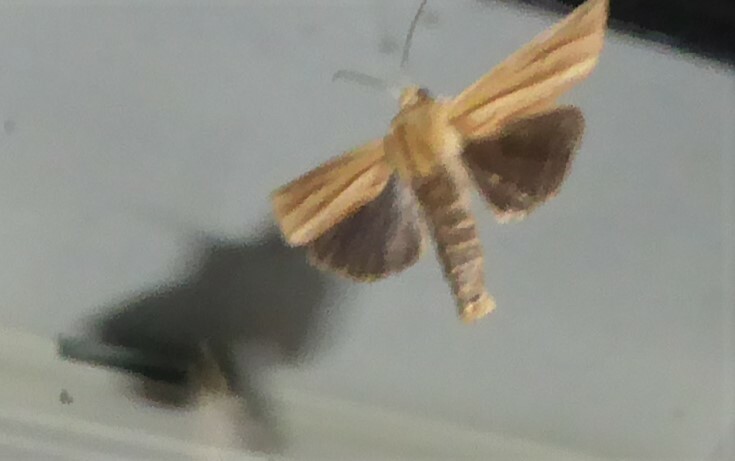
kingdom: Animalia
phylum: Arthropoda
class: Insecta
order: Lepidoptera
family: Noctuidae
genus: Ichneutica
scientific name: Ichneutica sulcana
